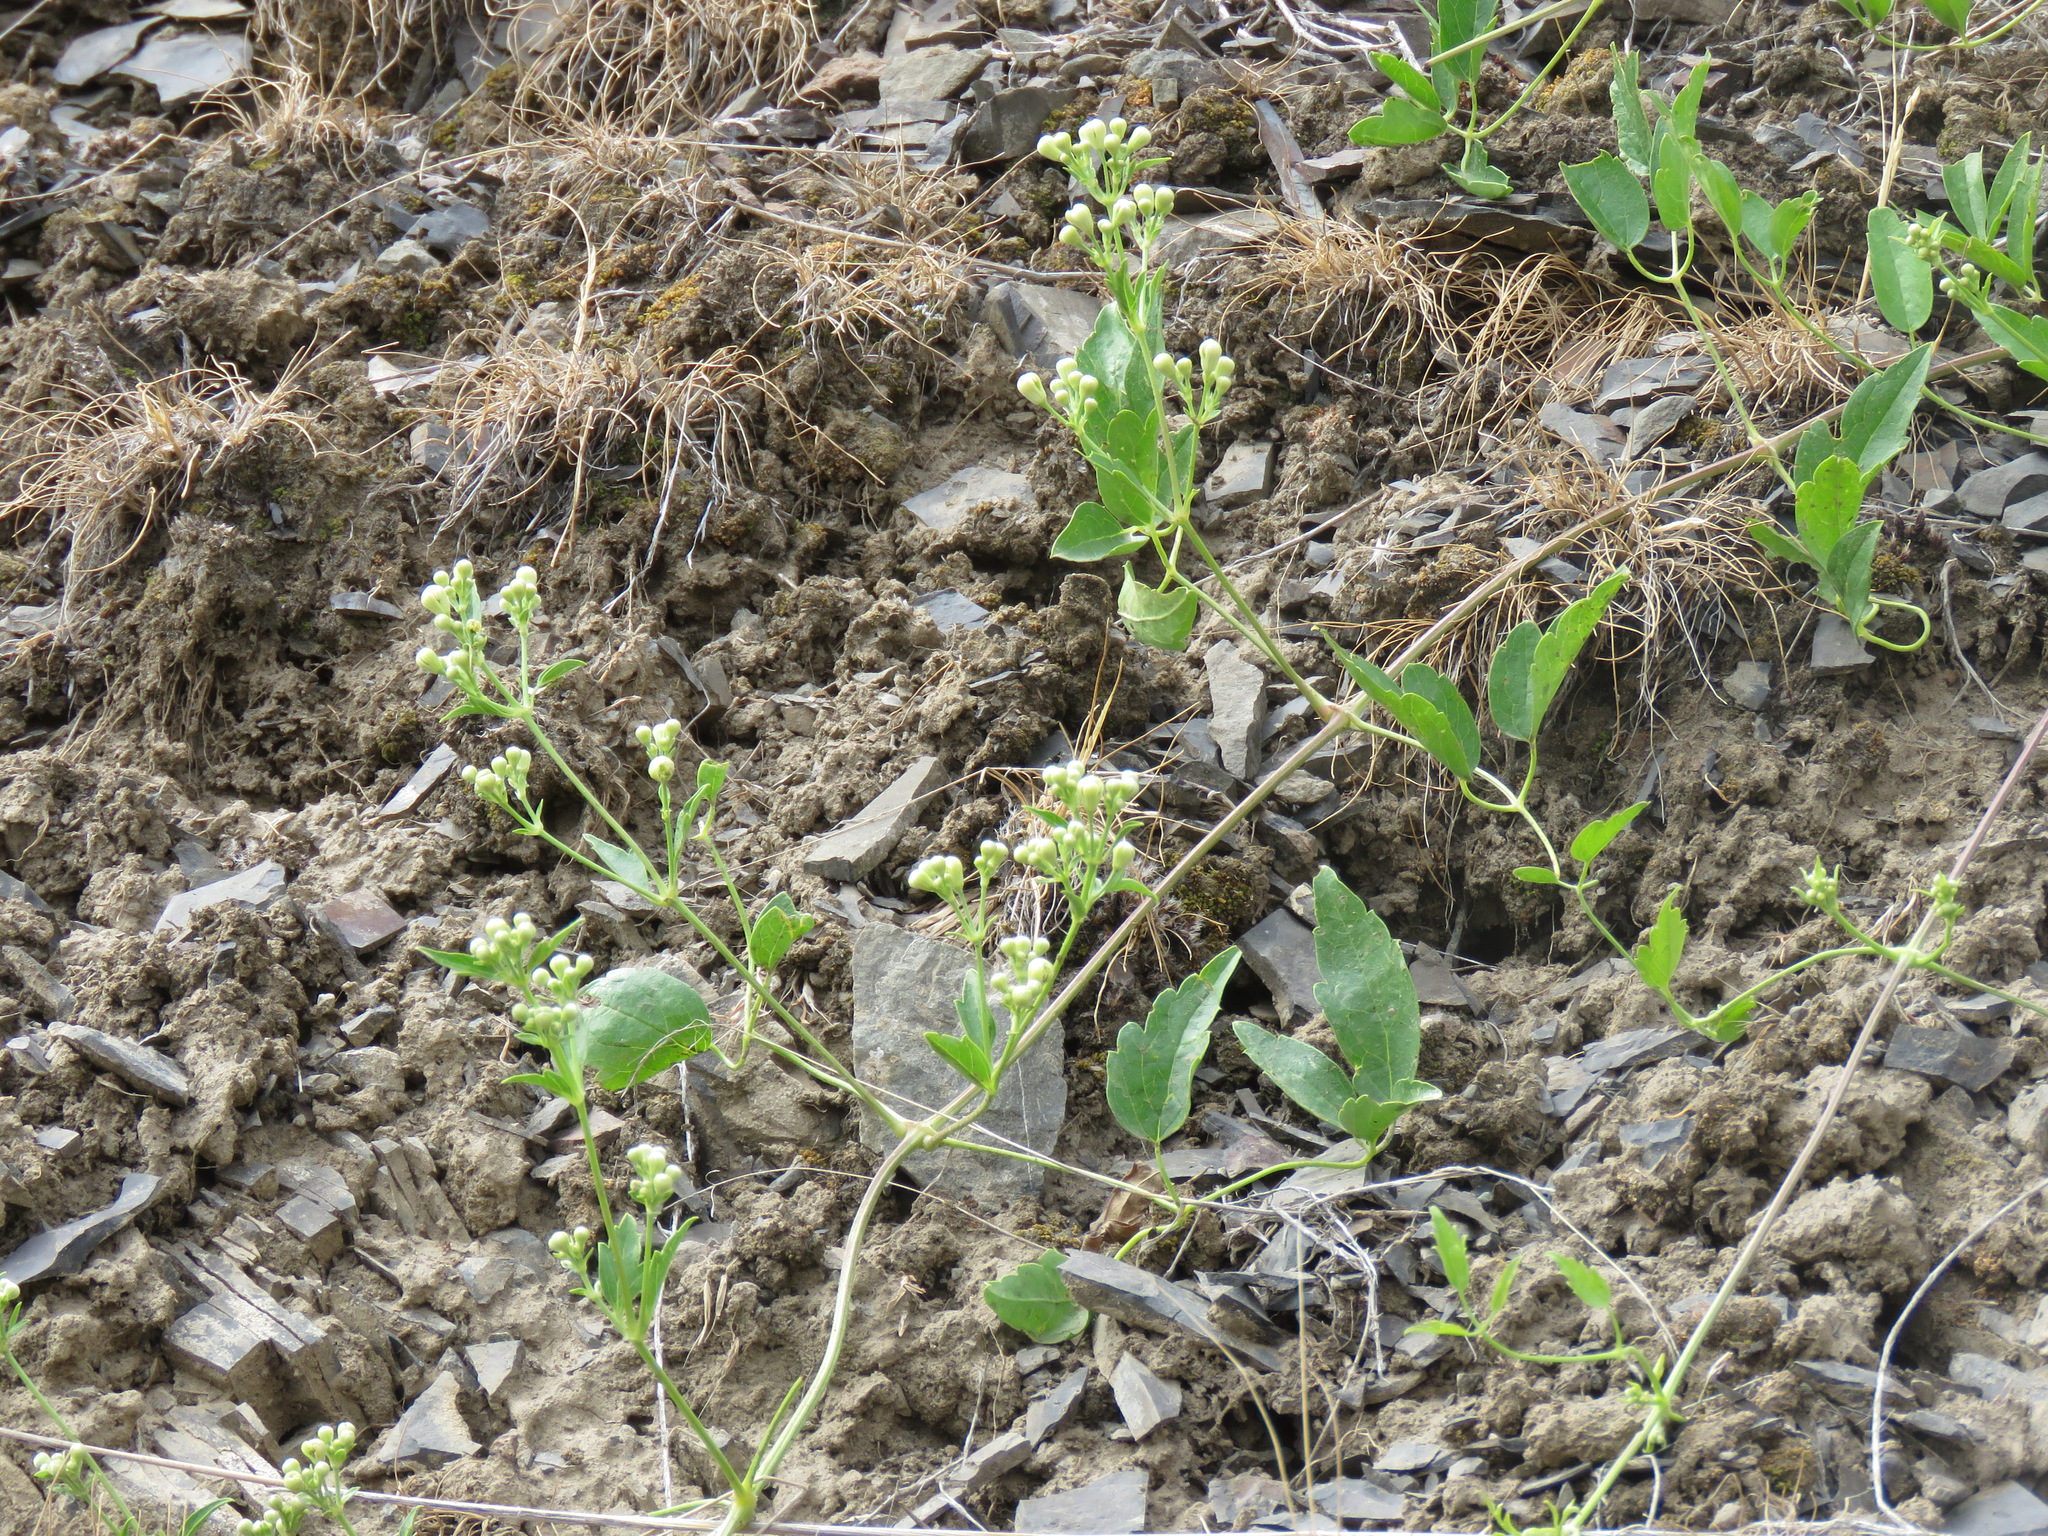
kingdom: Plantae
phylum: Tracheophyta
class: Magnoliopsida
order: Ranunculales
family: Ranunculaceae
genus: Clematis
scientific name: Clematis ligusticifolia
